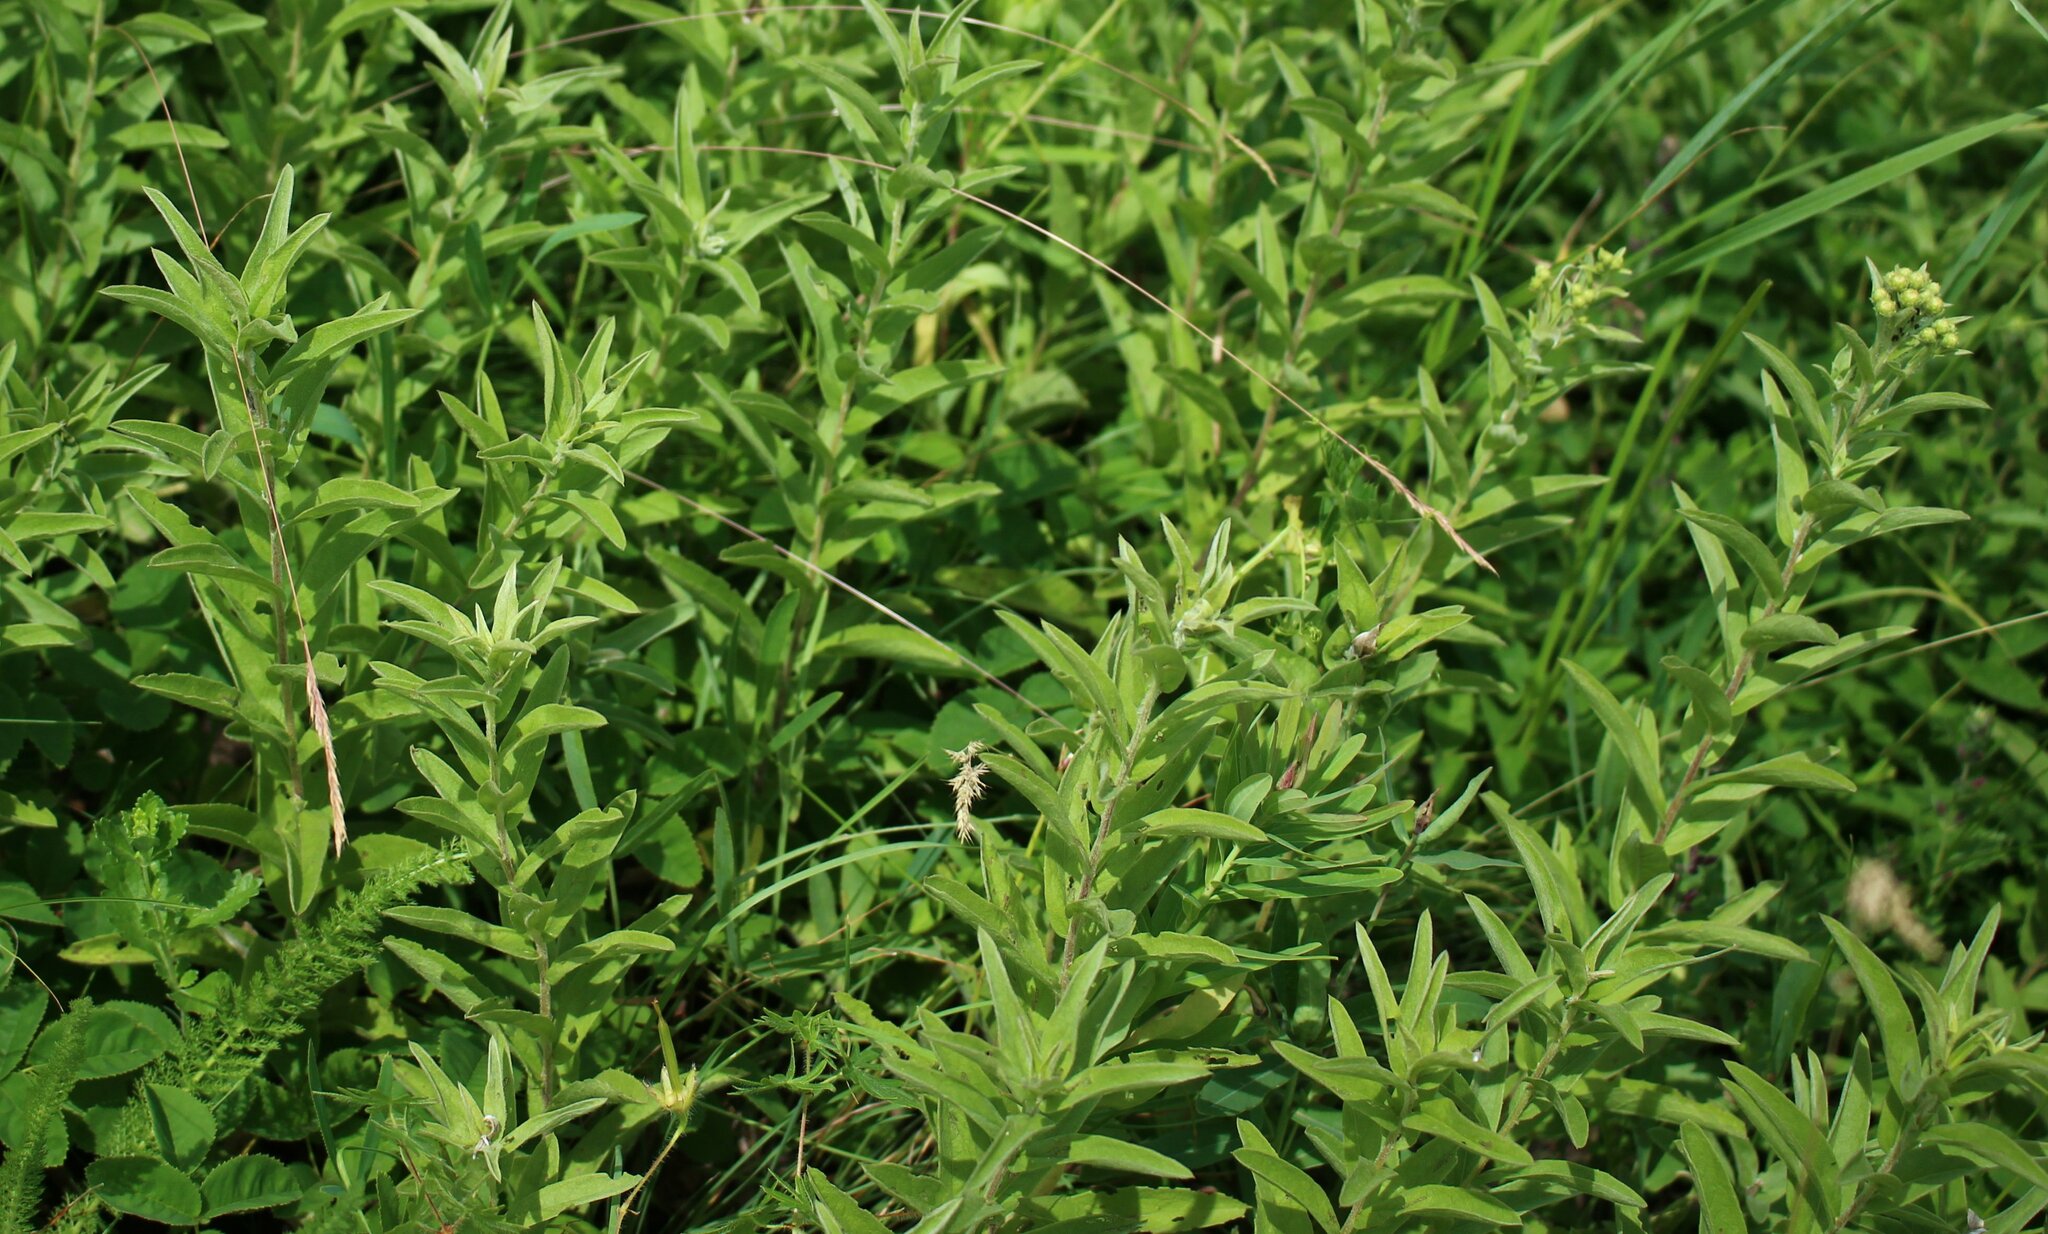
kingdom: Plantae
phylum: Tracheophyta
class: Magnoliopsida
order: Asterales
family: Asteraceae
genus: Pentanema
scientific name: Pentanema germanicum
